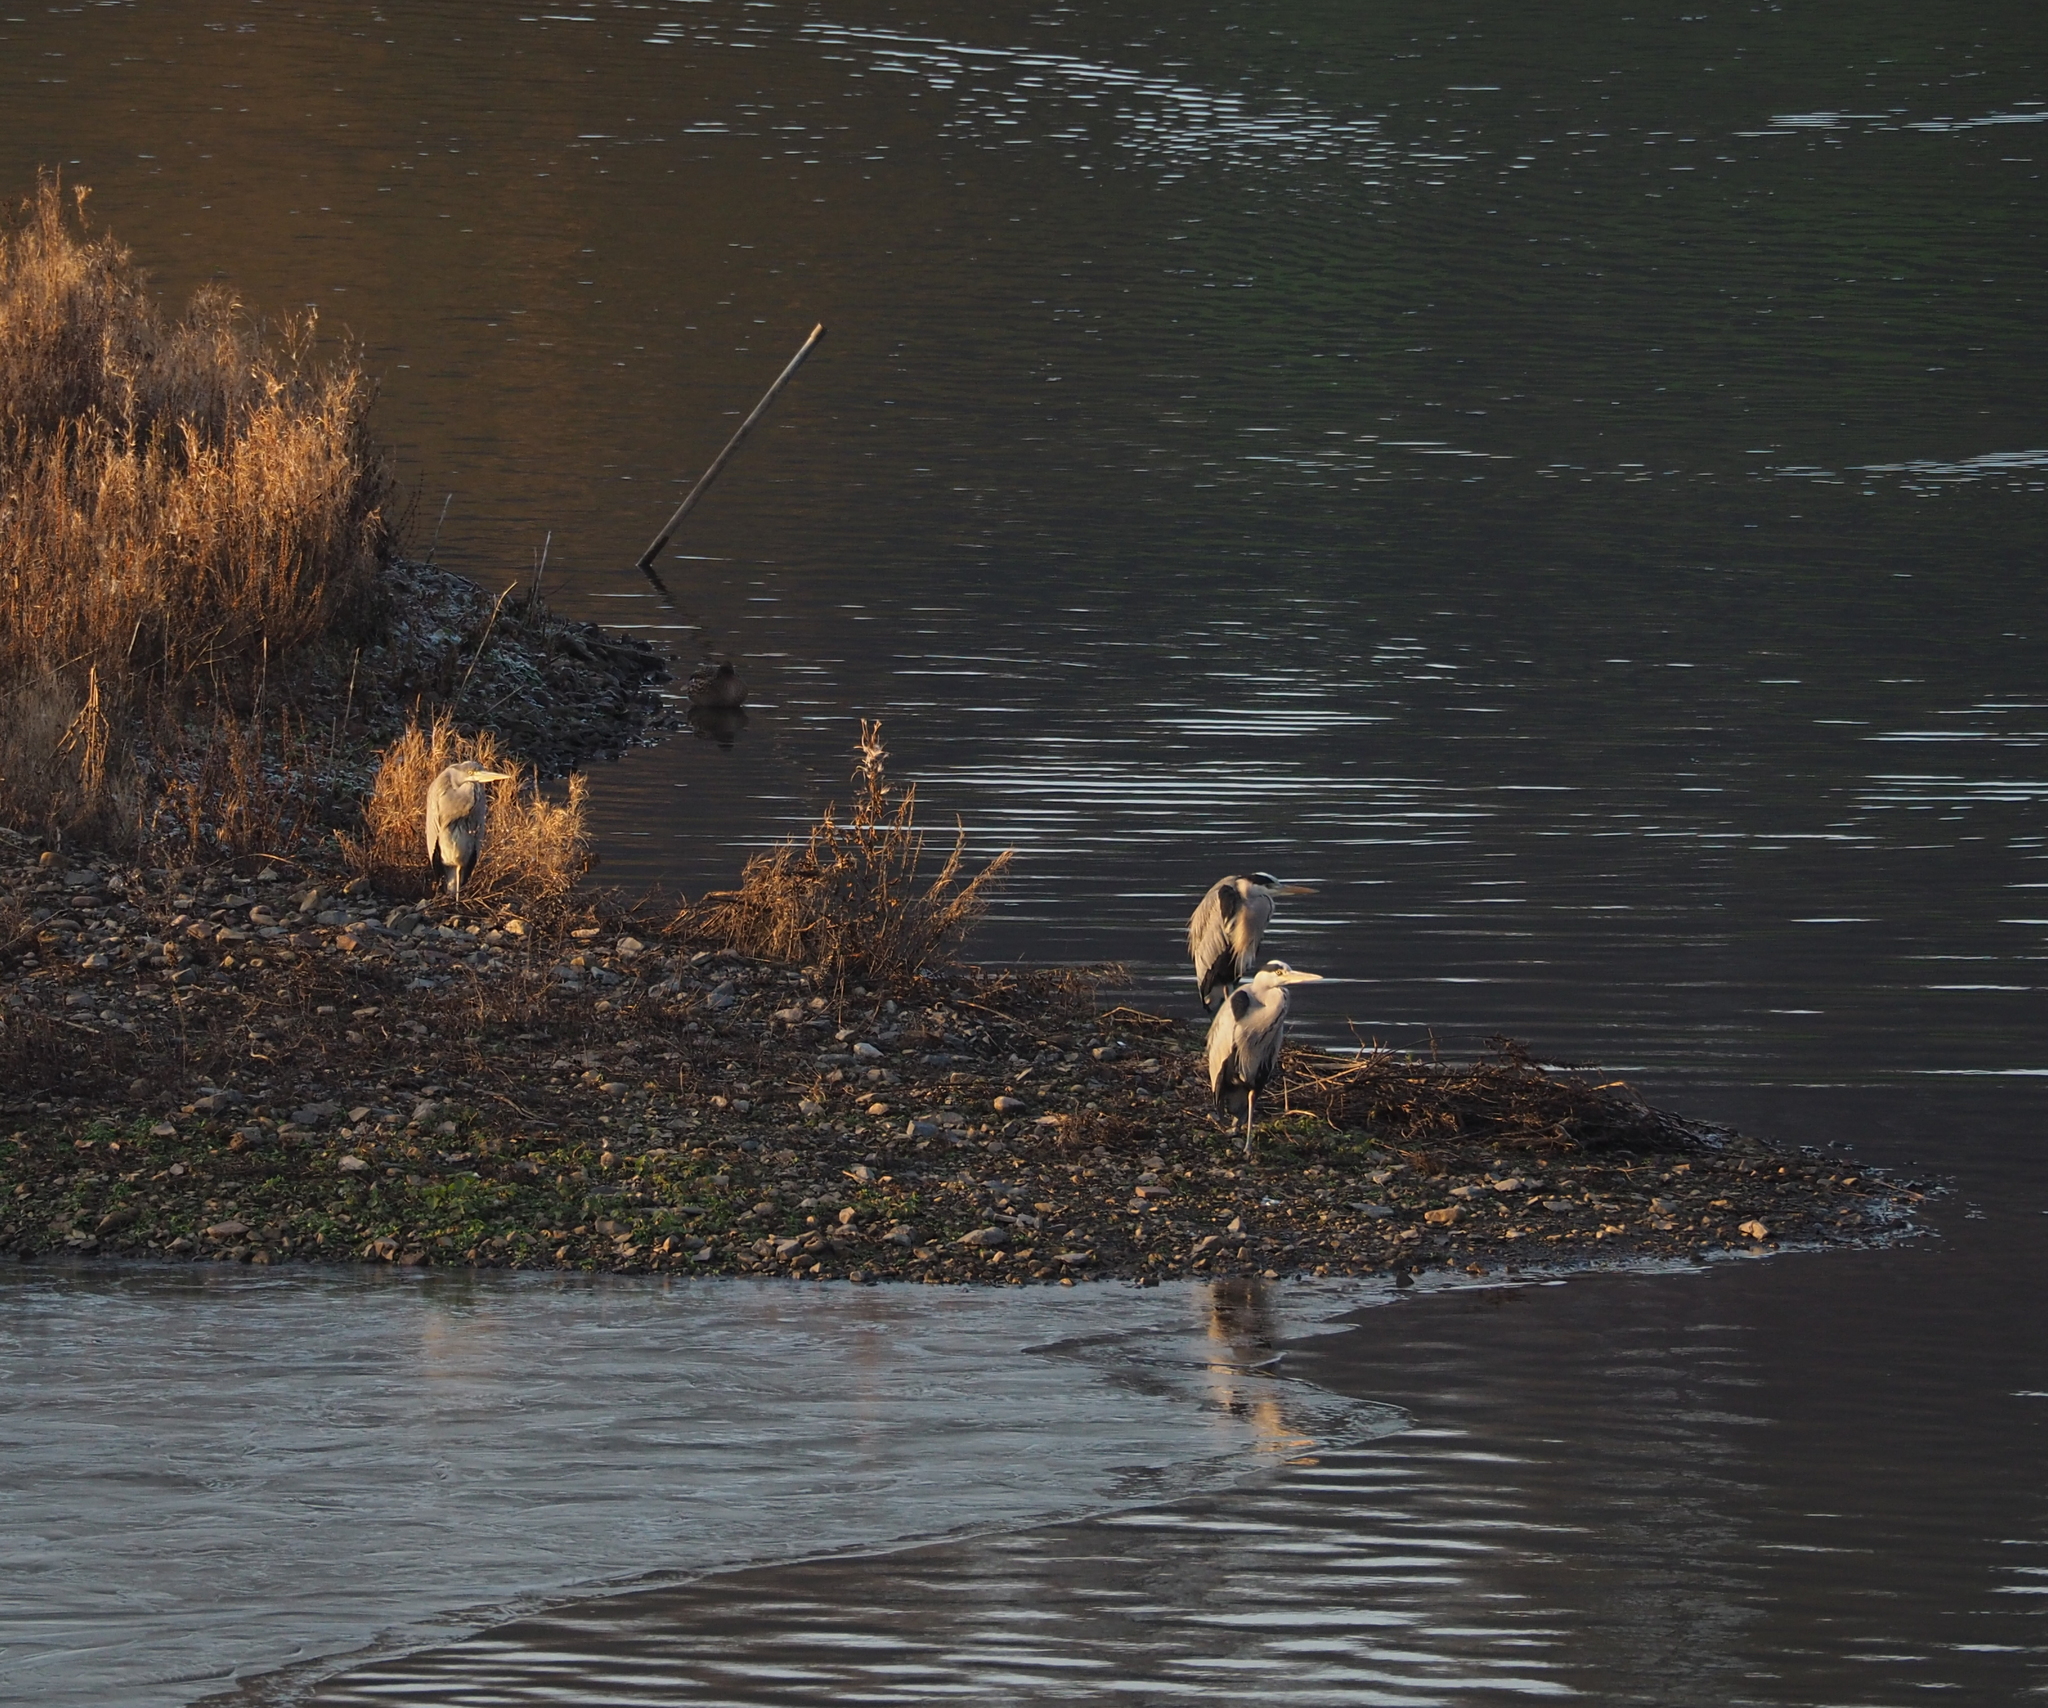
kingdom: Animalia
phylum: Chordata
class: Aves
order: Pelecaniformes
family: Ardeidae
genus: Ardea
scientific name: Ardea cinerea
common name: Grey heron
